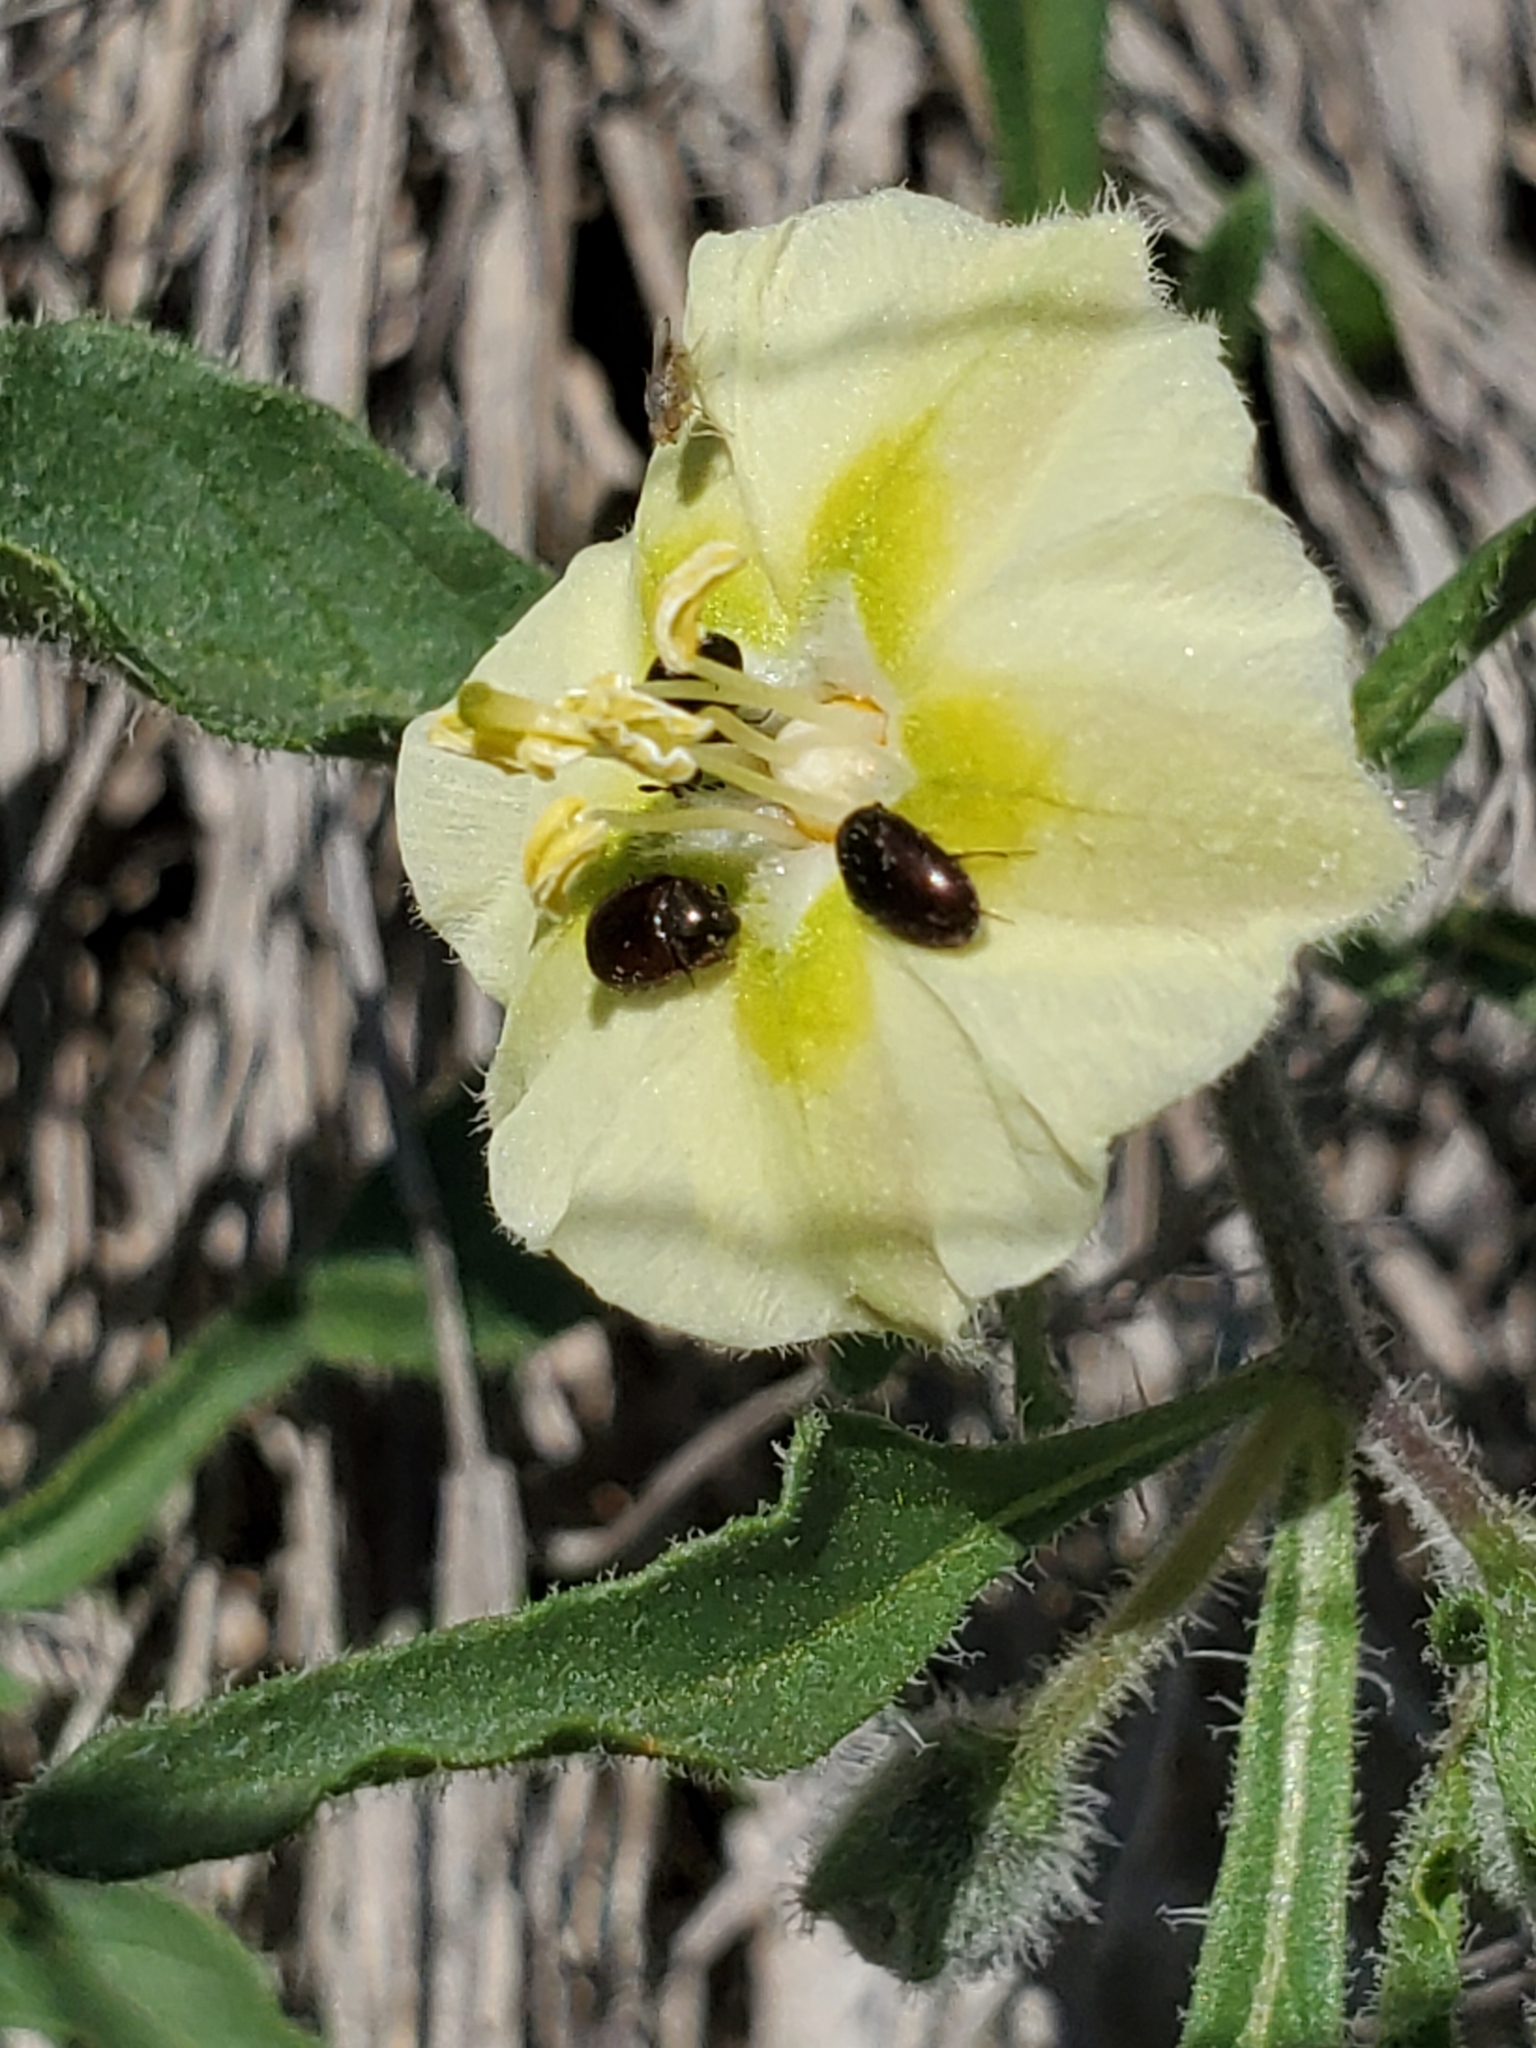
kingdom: Plantae
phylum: Tracheophyta
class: Magnoliopsida
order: Solanales
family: Solanaceae
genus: Chamaesaracha
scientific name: Chamaesaracha edwardsiana
